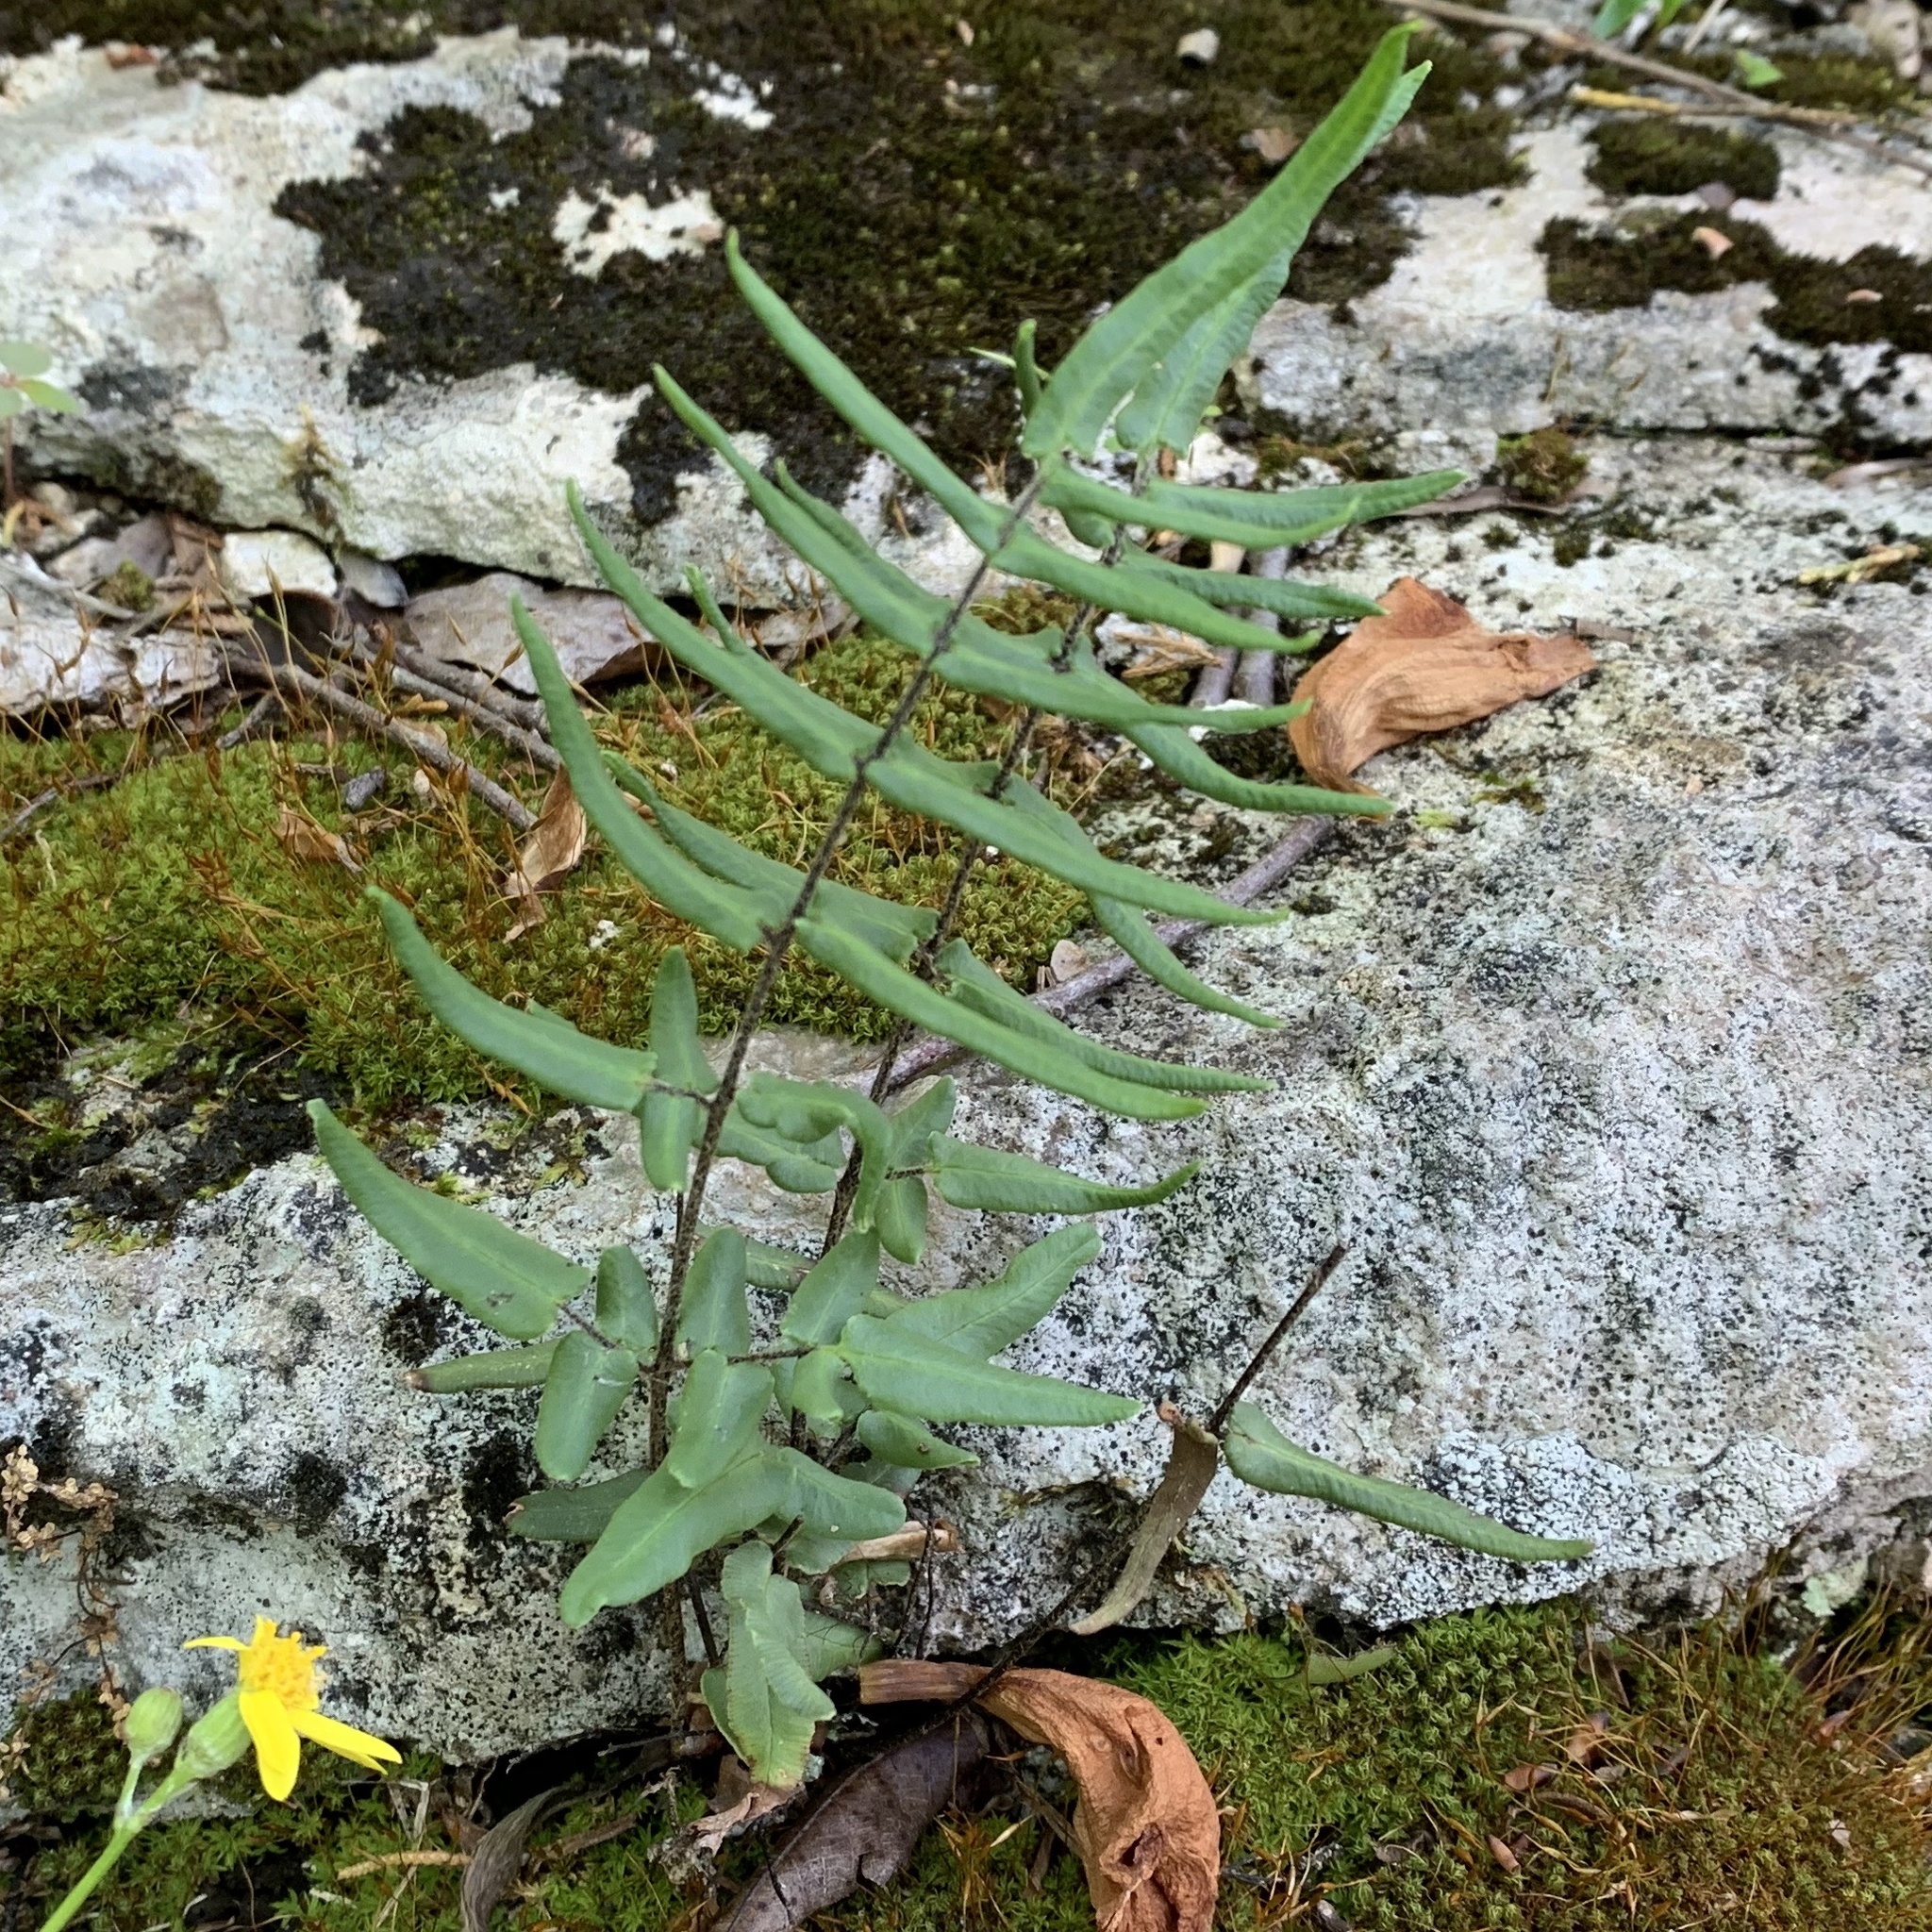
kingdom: Plantae
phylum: Tracheophyta
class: Polypodiopsida
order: Polypodiales
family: Pteridaceae
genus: Pellaea
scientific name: Pellaea atropurpurea
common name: Hairy cliffbrake
